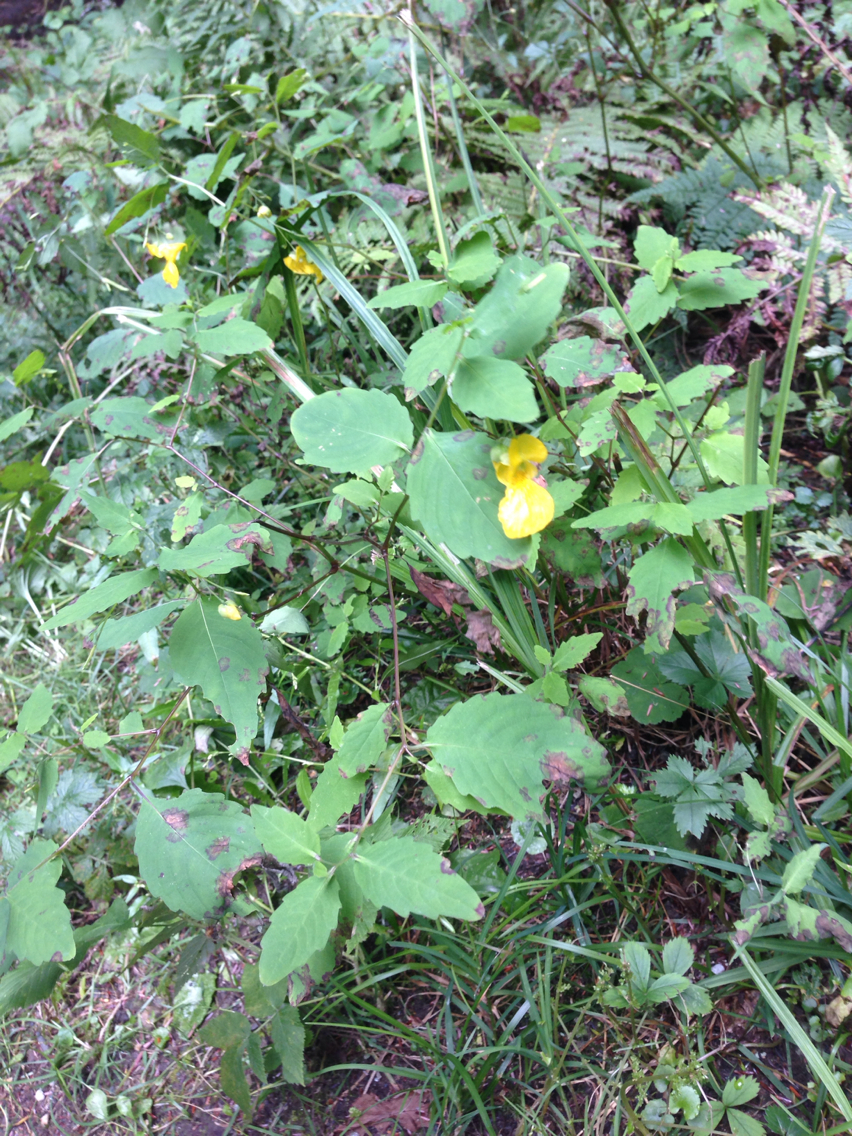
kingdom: Plantae
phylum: Tracheophyta
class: Magnoliopsida
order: Ericales
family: Balsaminaceae
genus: Impatiens
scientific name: Impatiens pallida
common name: Pale snapweed
